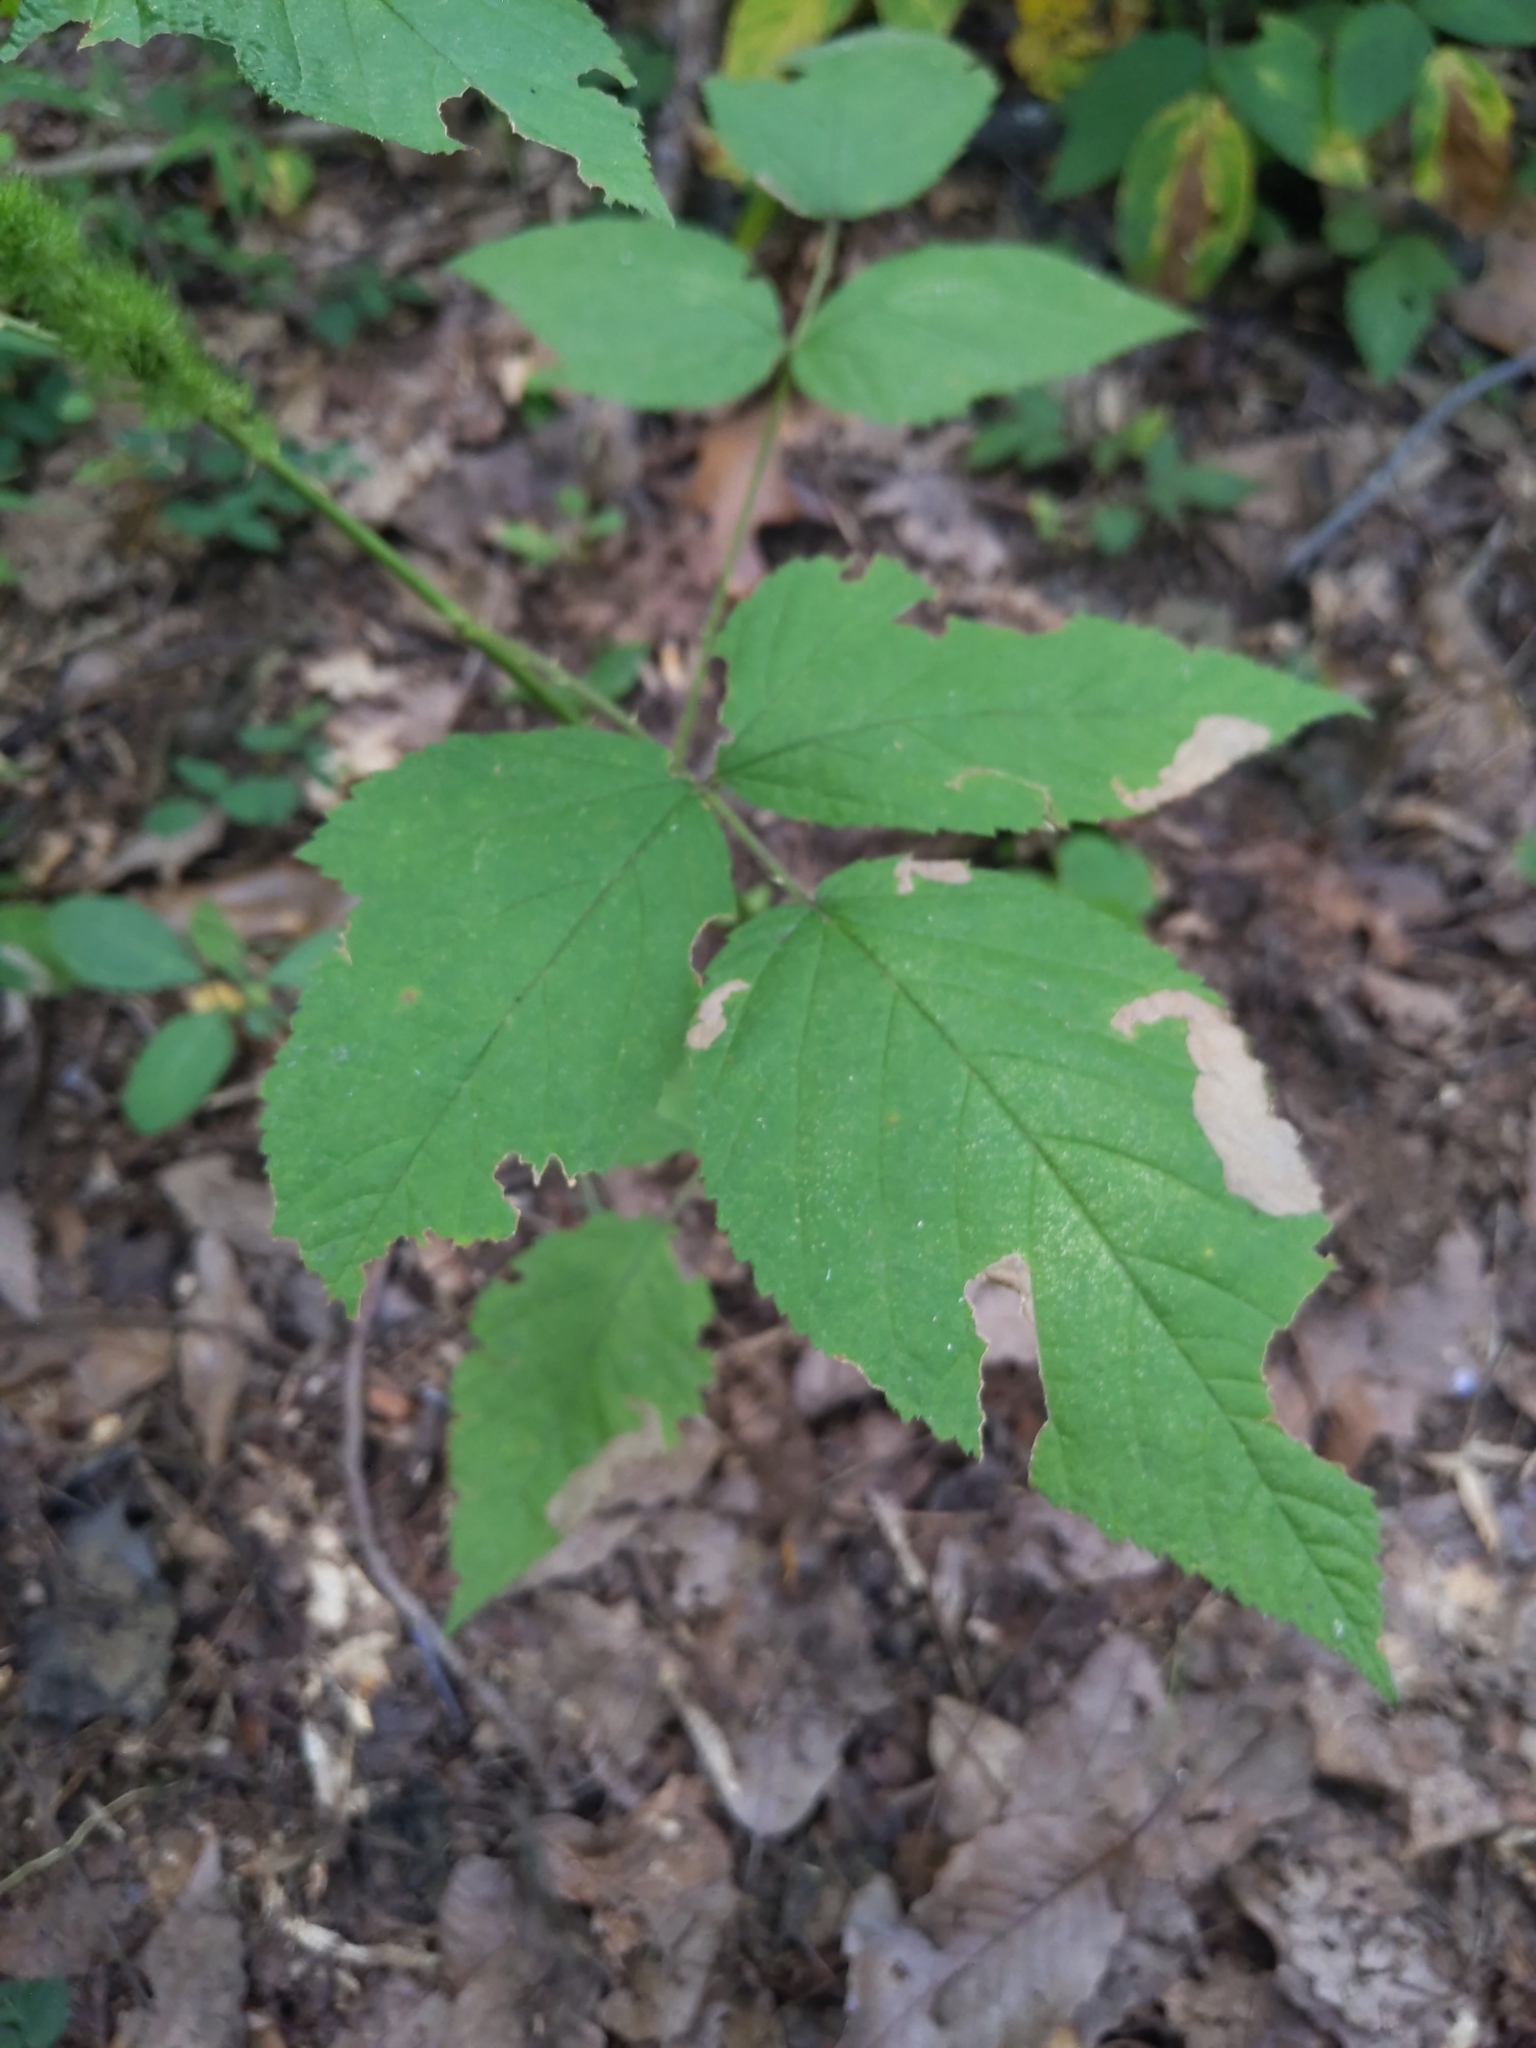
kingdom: Animalia
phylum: Arthropoda
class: Insecta
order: Hymenoptera
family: Tenthredinidae
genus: Metallus
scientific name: Metallus rohweri
